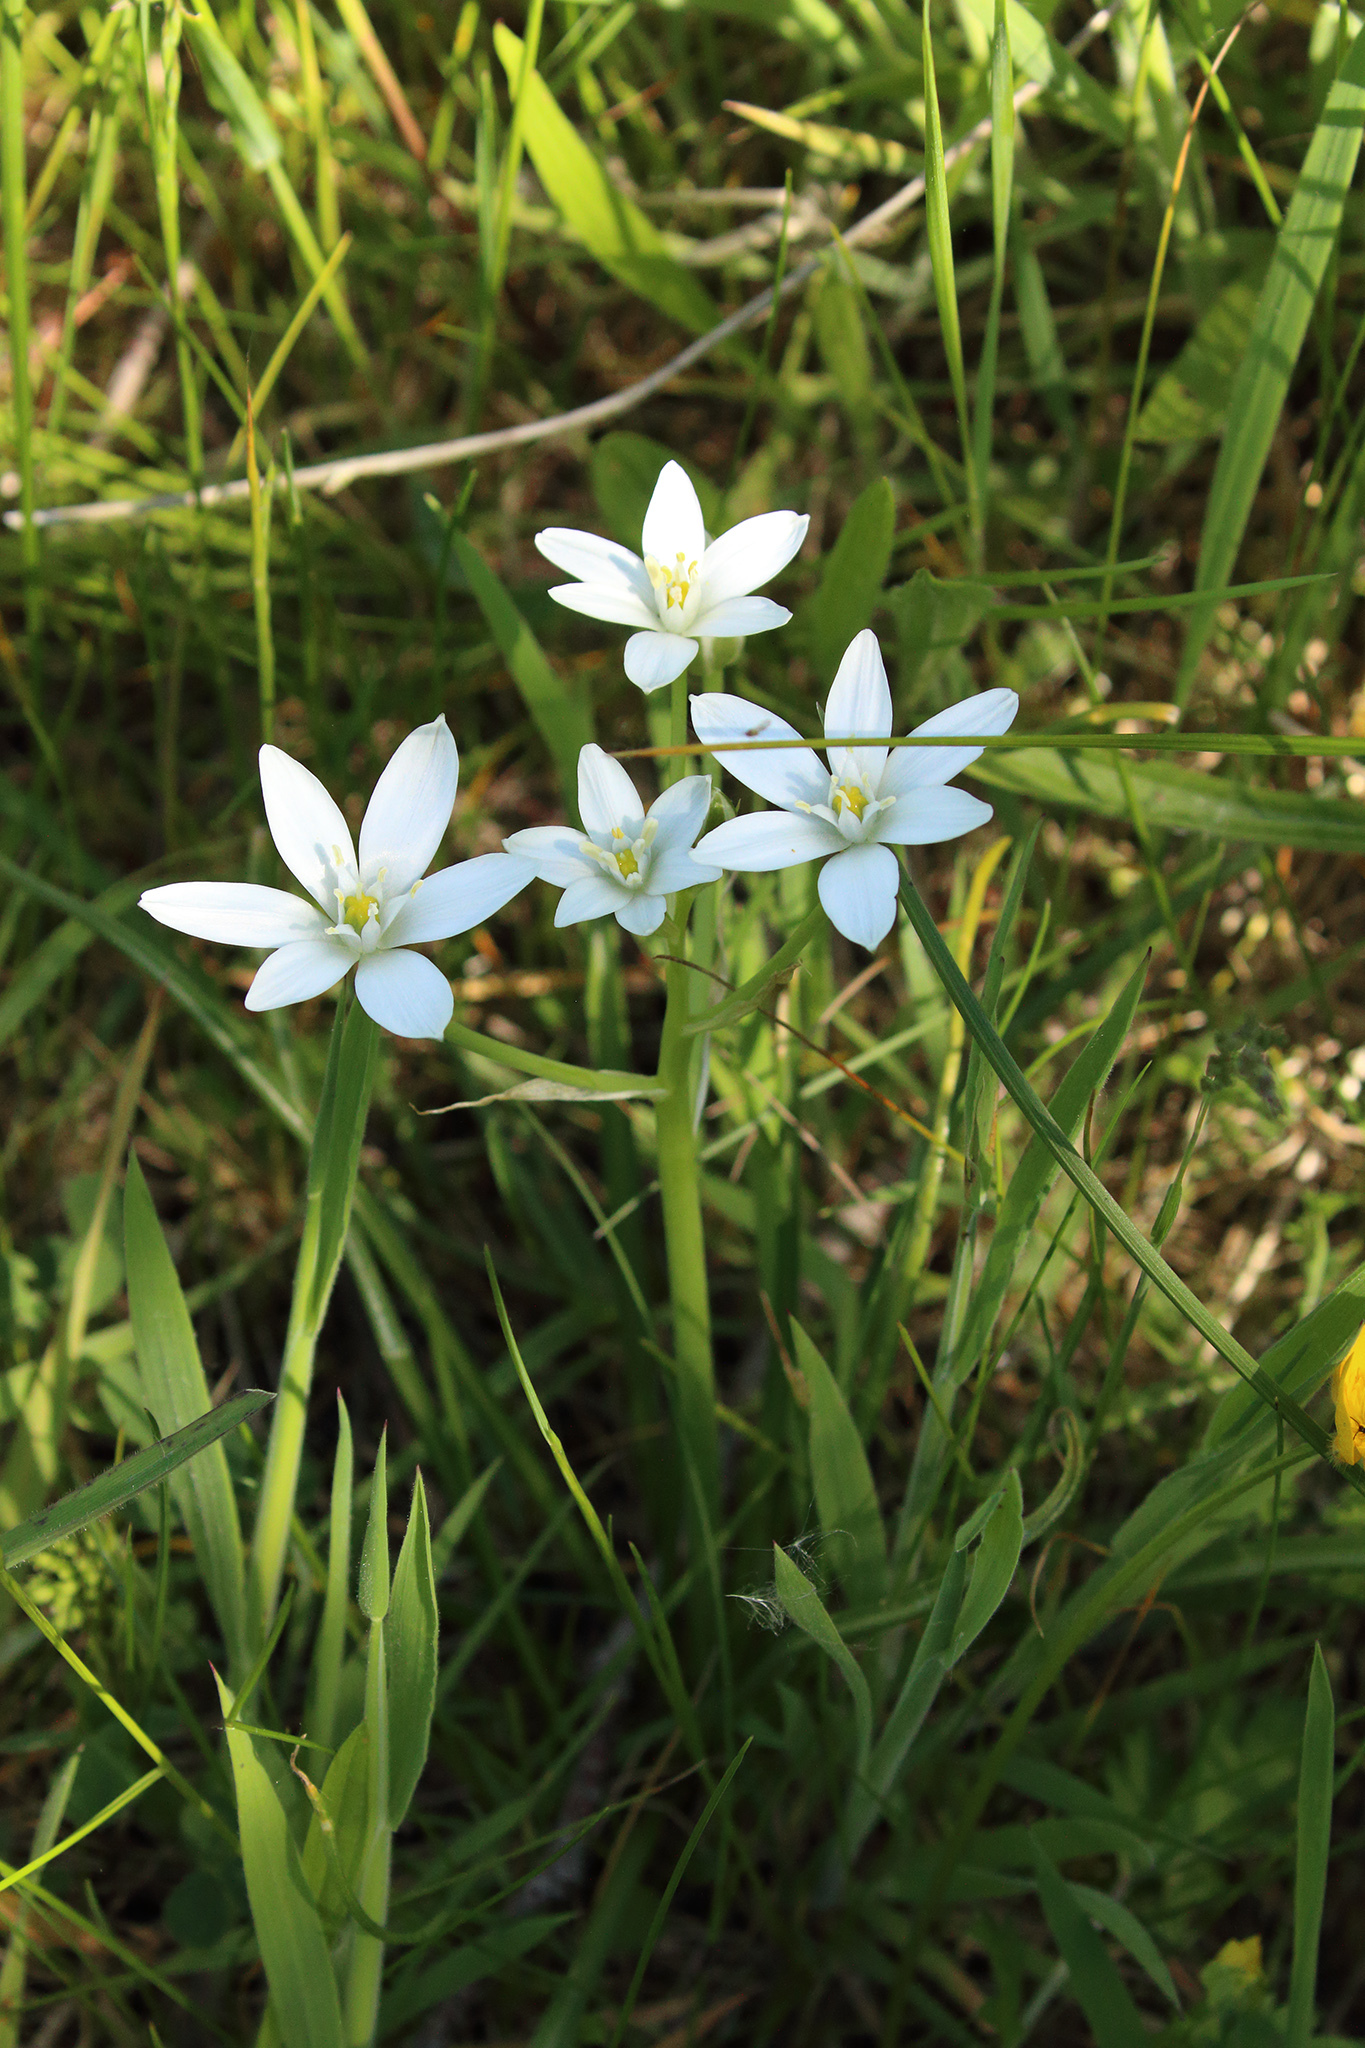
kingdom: Plantae
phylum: Tracheophyta
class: Liliopsida
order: Asparagales
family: Asparagaceae
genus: Ornithogalum
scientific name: Ornithogalum umbellatum
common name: Garden star-of-bethlehem
